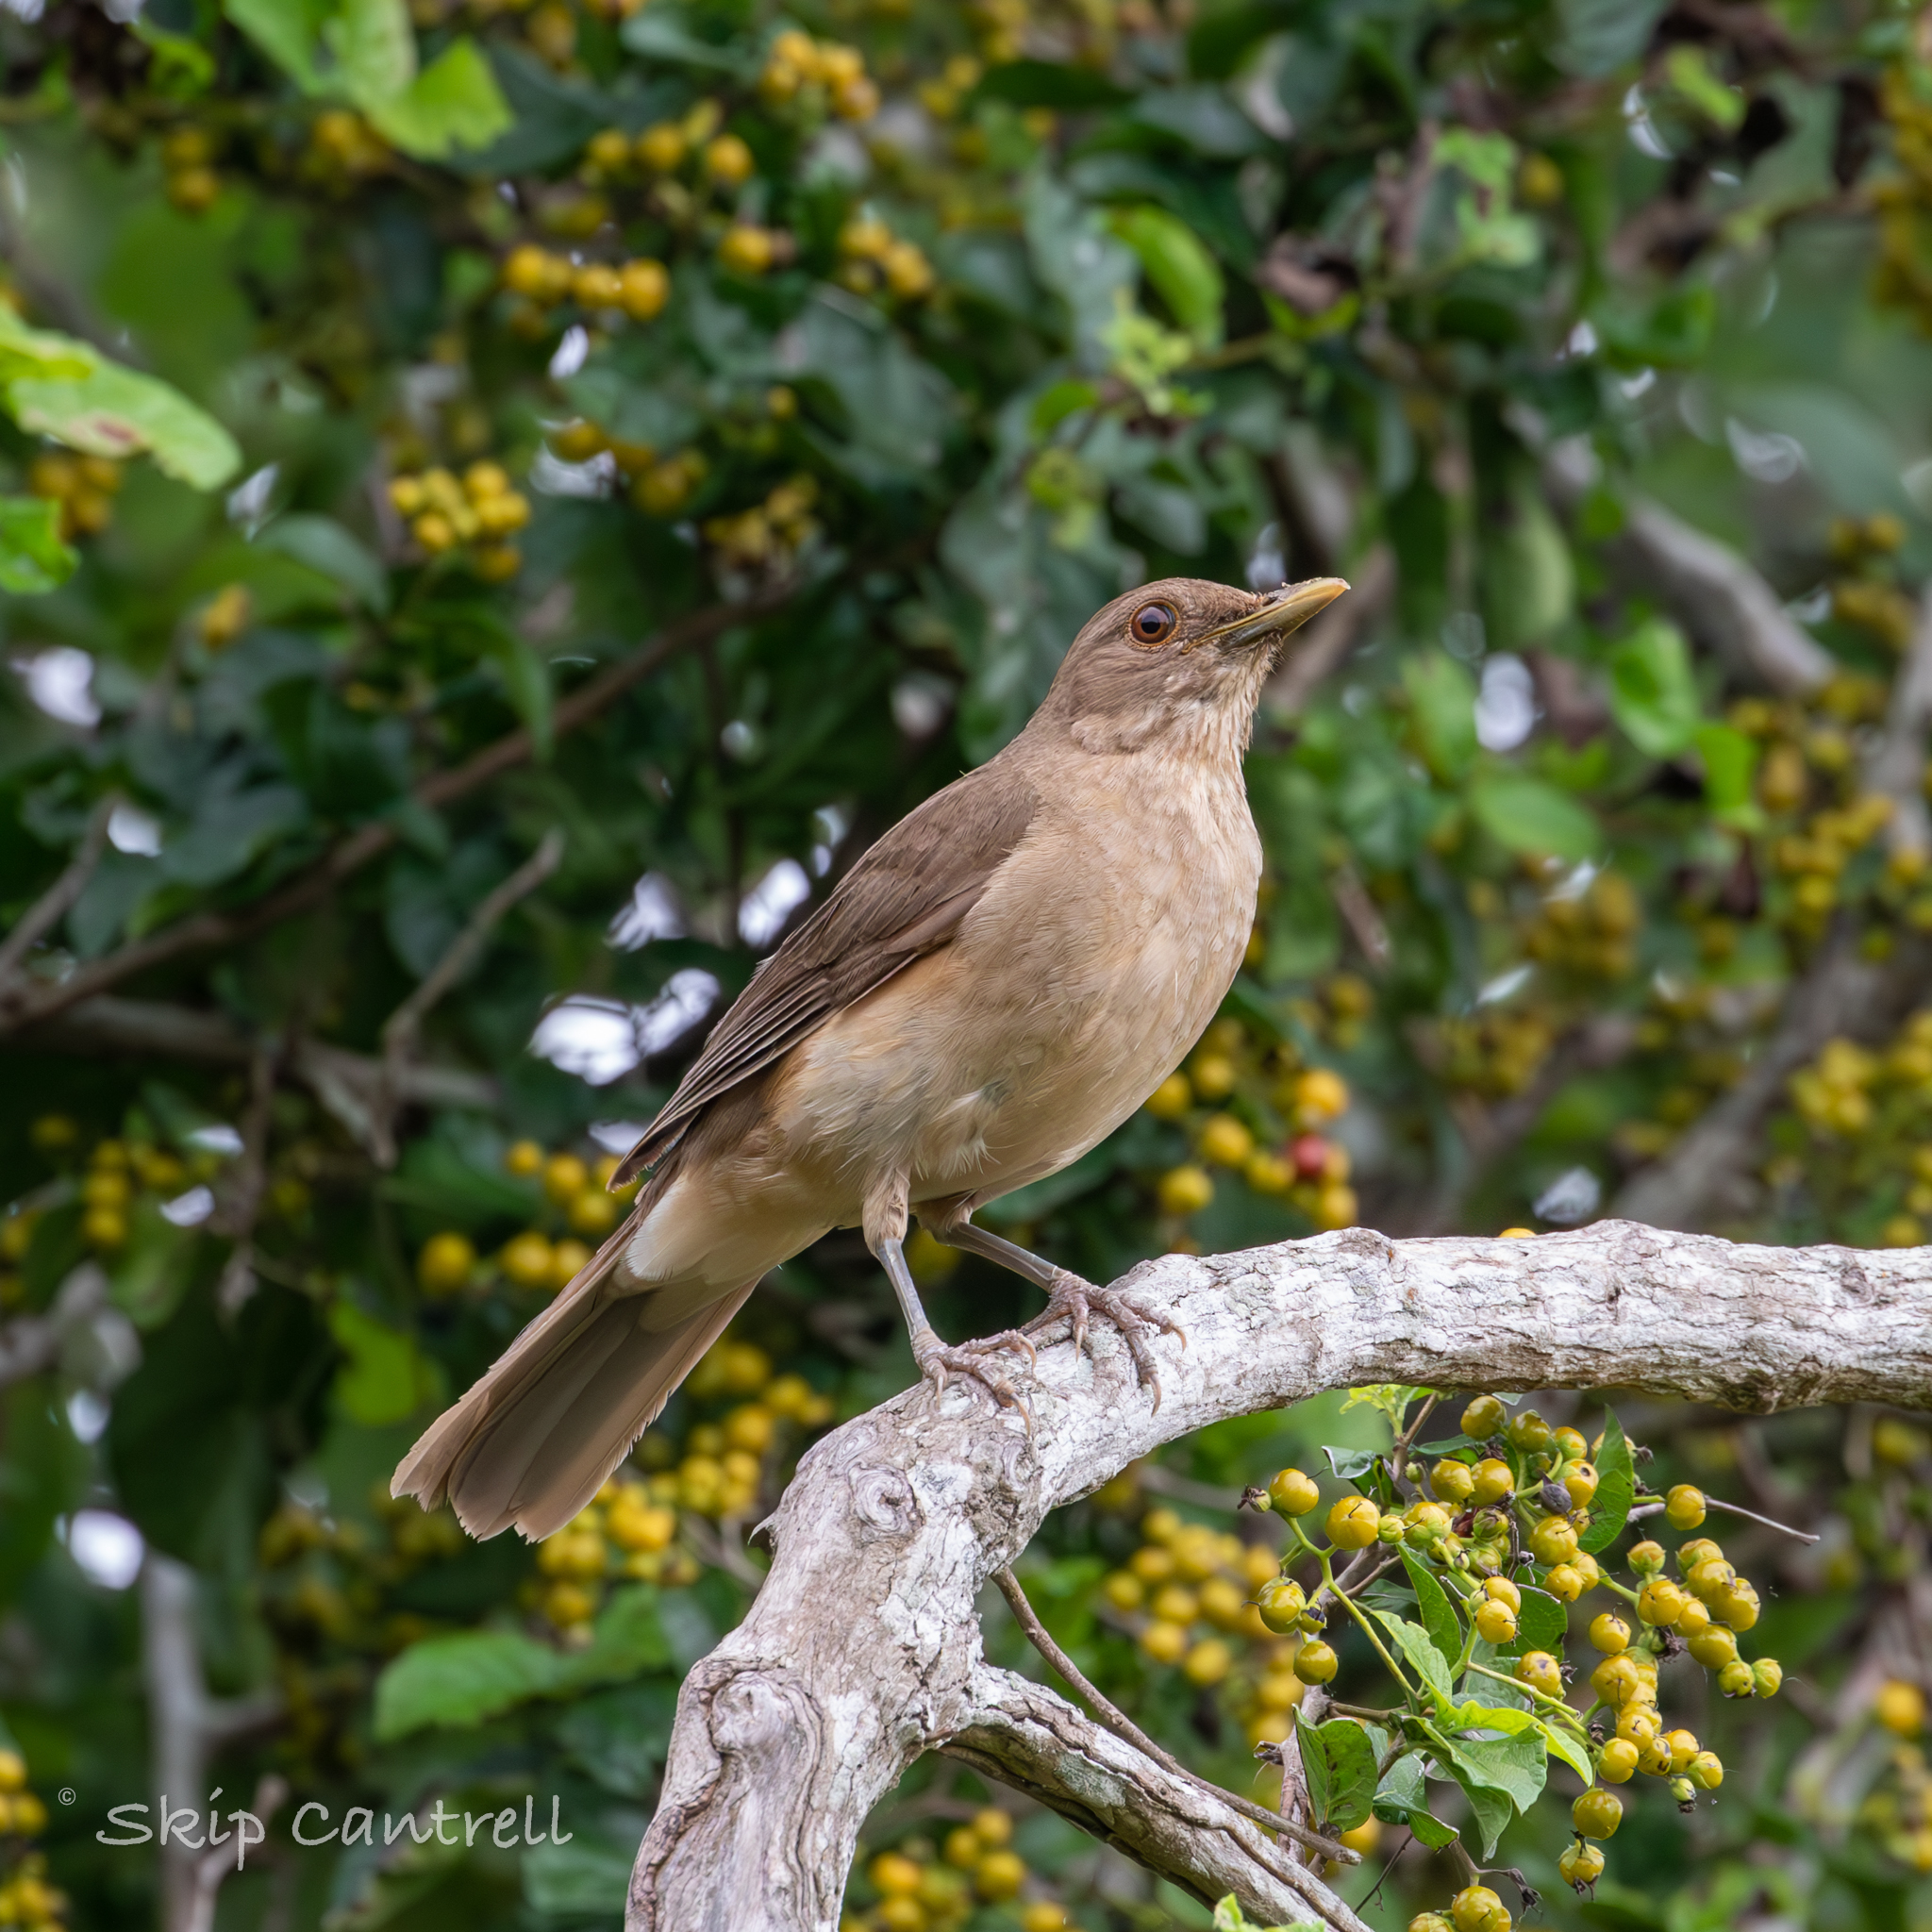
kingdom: Animalia
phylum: Chordata
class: Aves
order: Passeriformes
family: Turdidae
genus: Turdus
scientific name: Turdus grayi
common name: Clay-colored thrush
